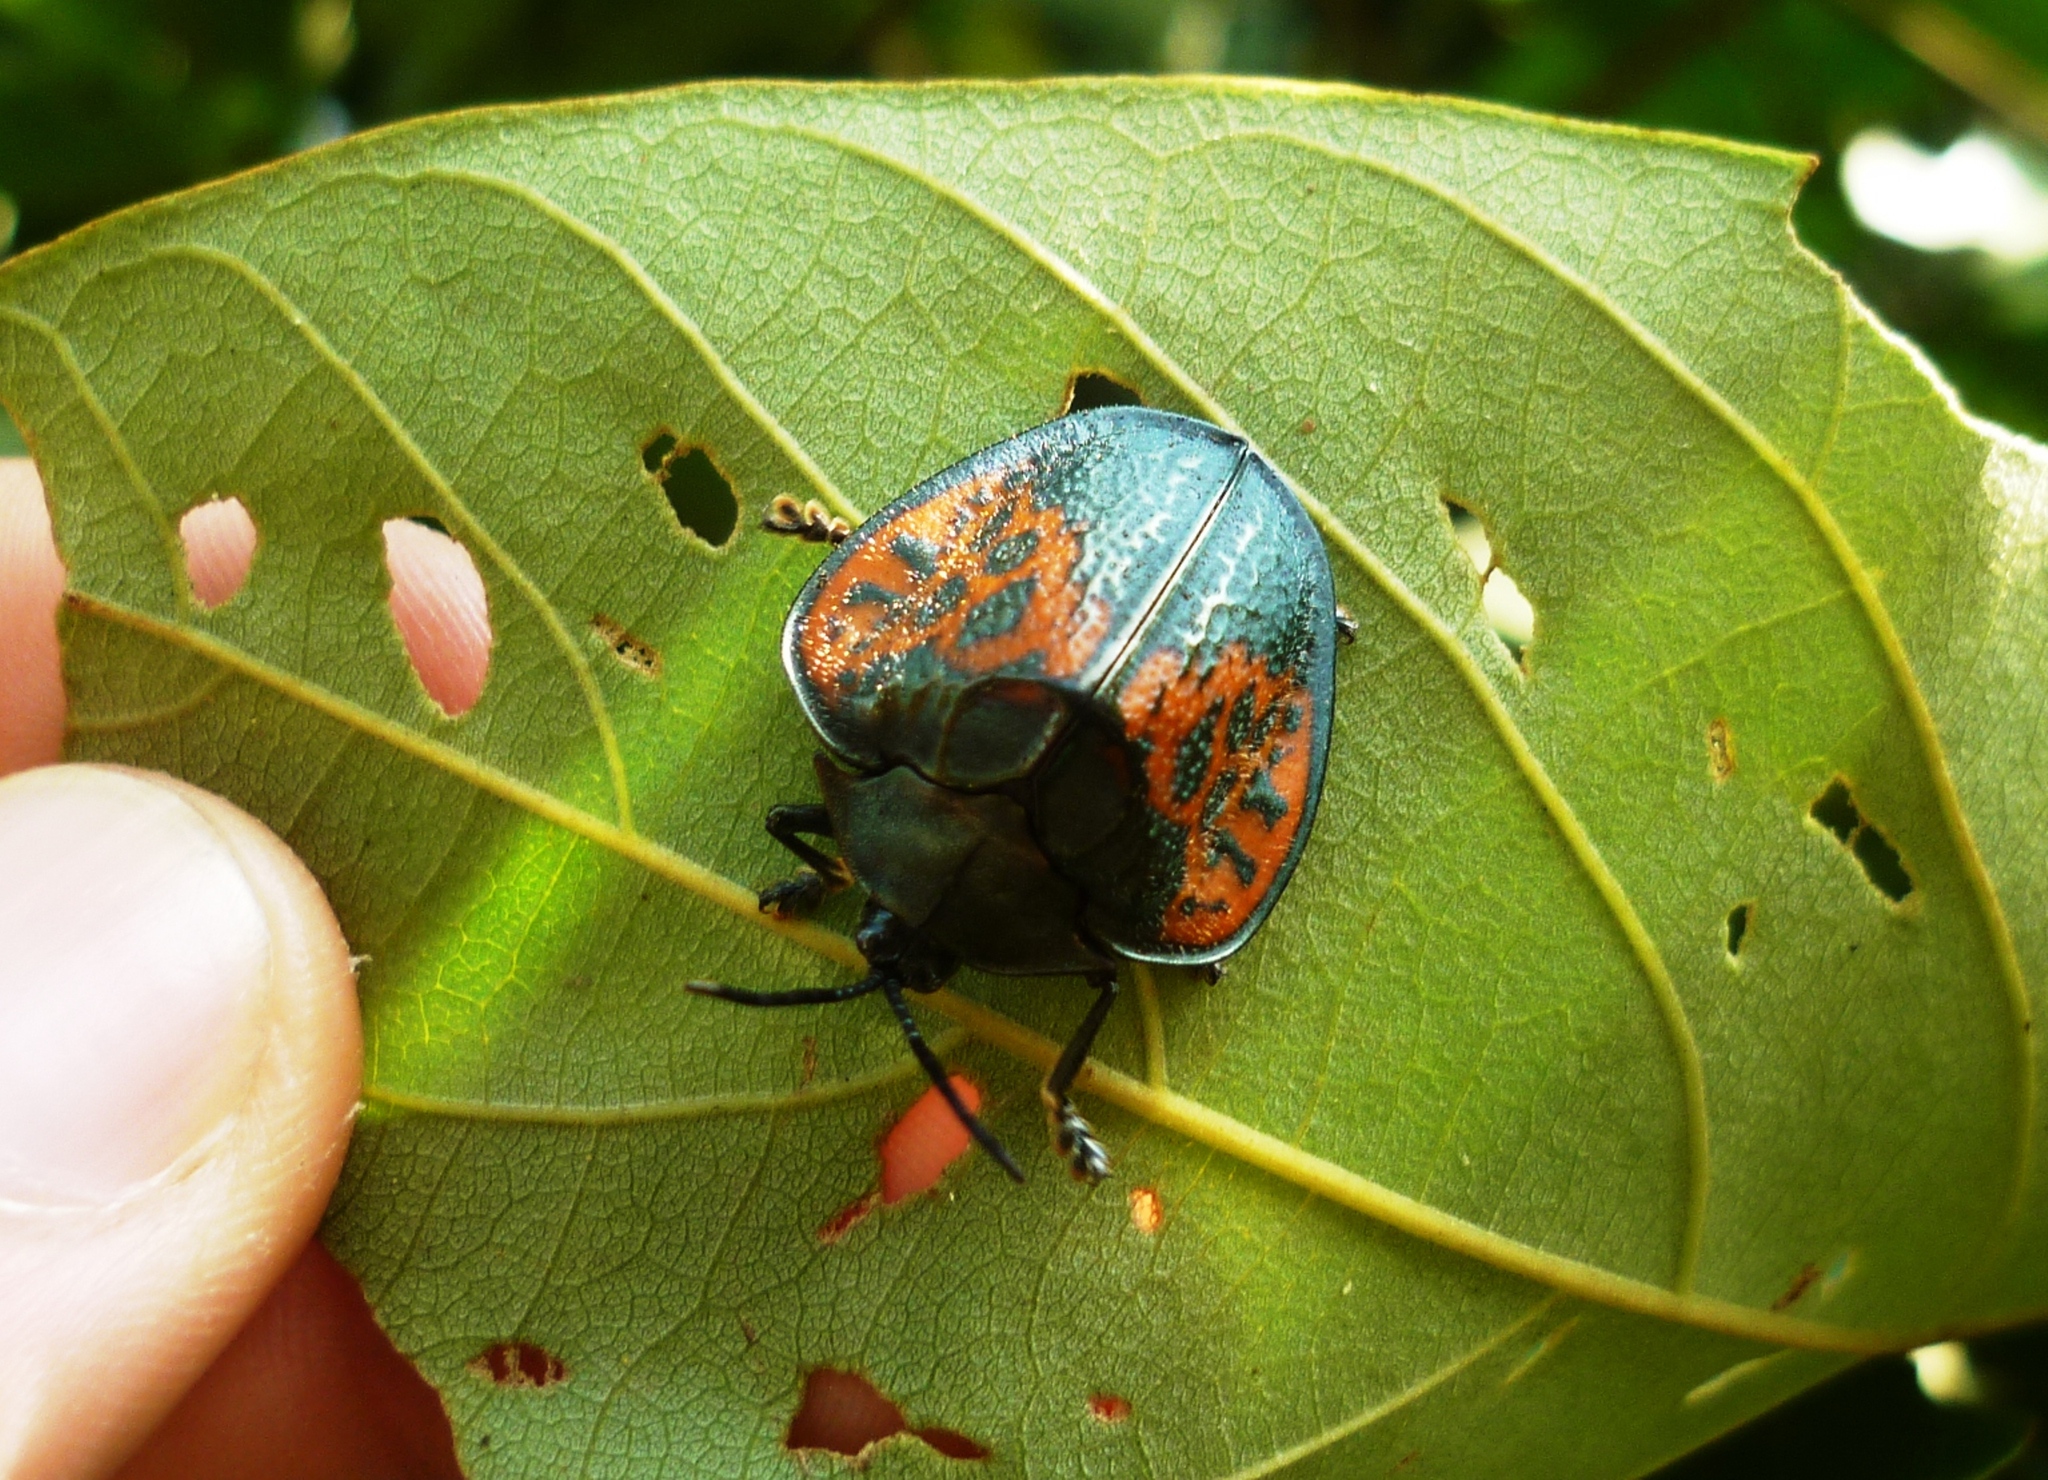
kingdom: Animalia
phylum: Arthropoda
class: Insecta
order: Coleoptera
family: Chrysomelidae
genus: Discomorpha
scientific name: Discomorpha salvini
